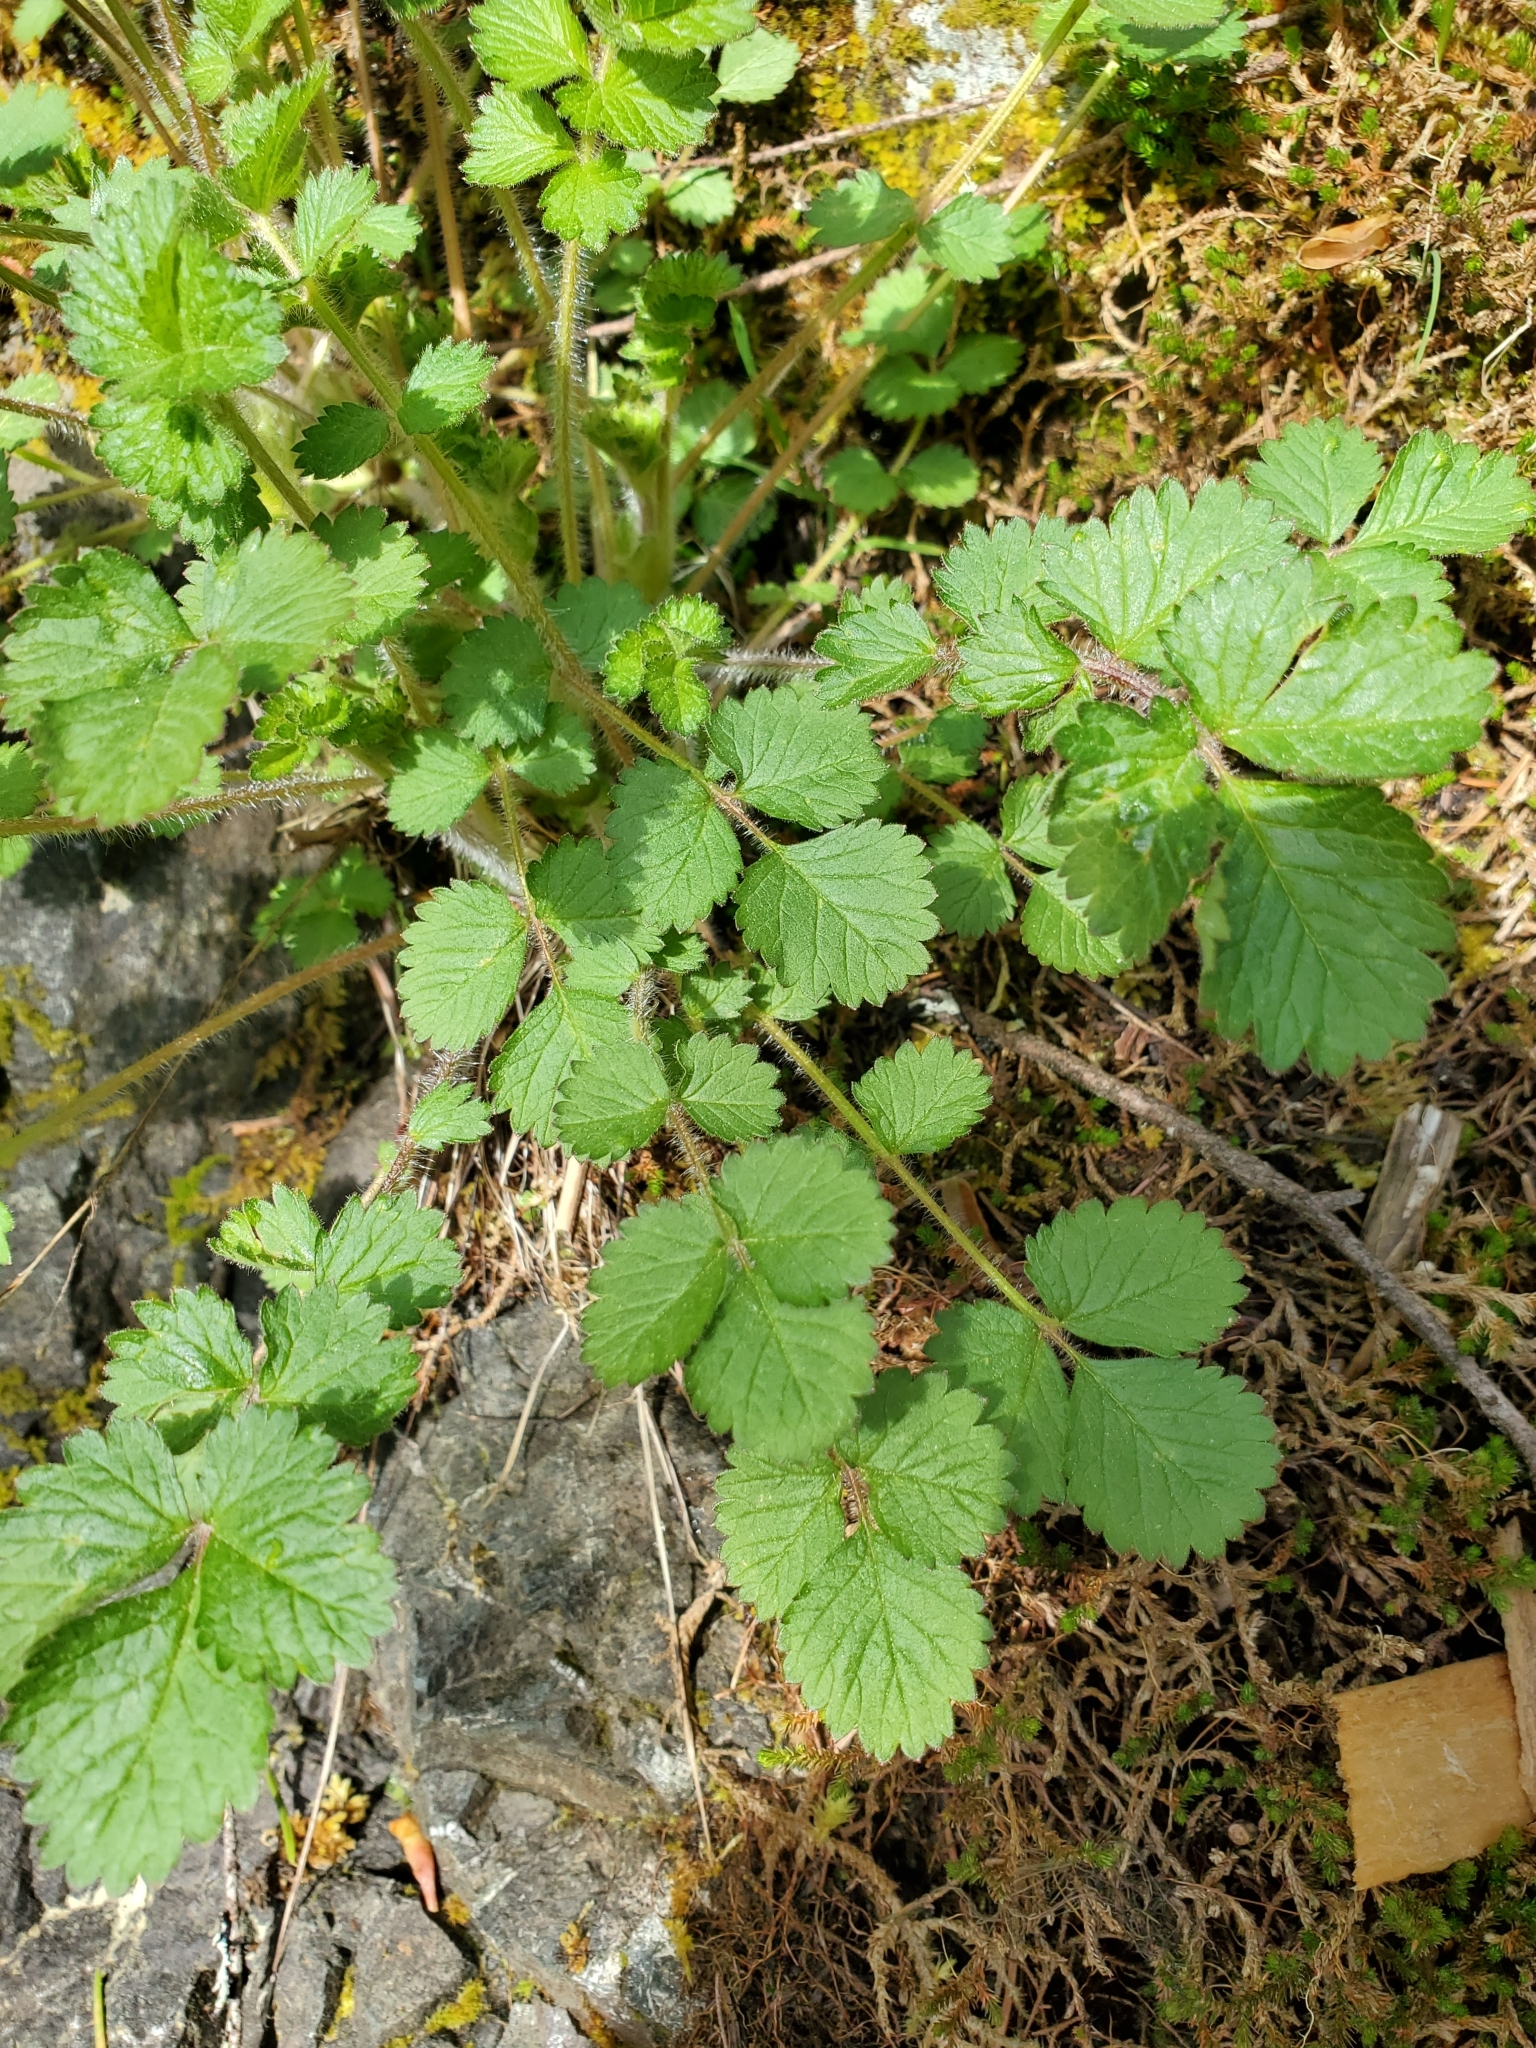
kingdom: Plantae
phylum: Tracheophyta
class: Magnoliopsida
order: Rosales
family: Rosaceae
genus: Drymocallis
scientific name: Drymocallis glandulosa
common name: Sticky cinquefoil
